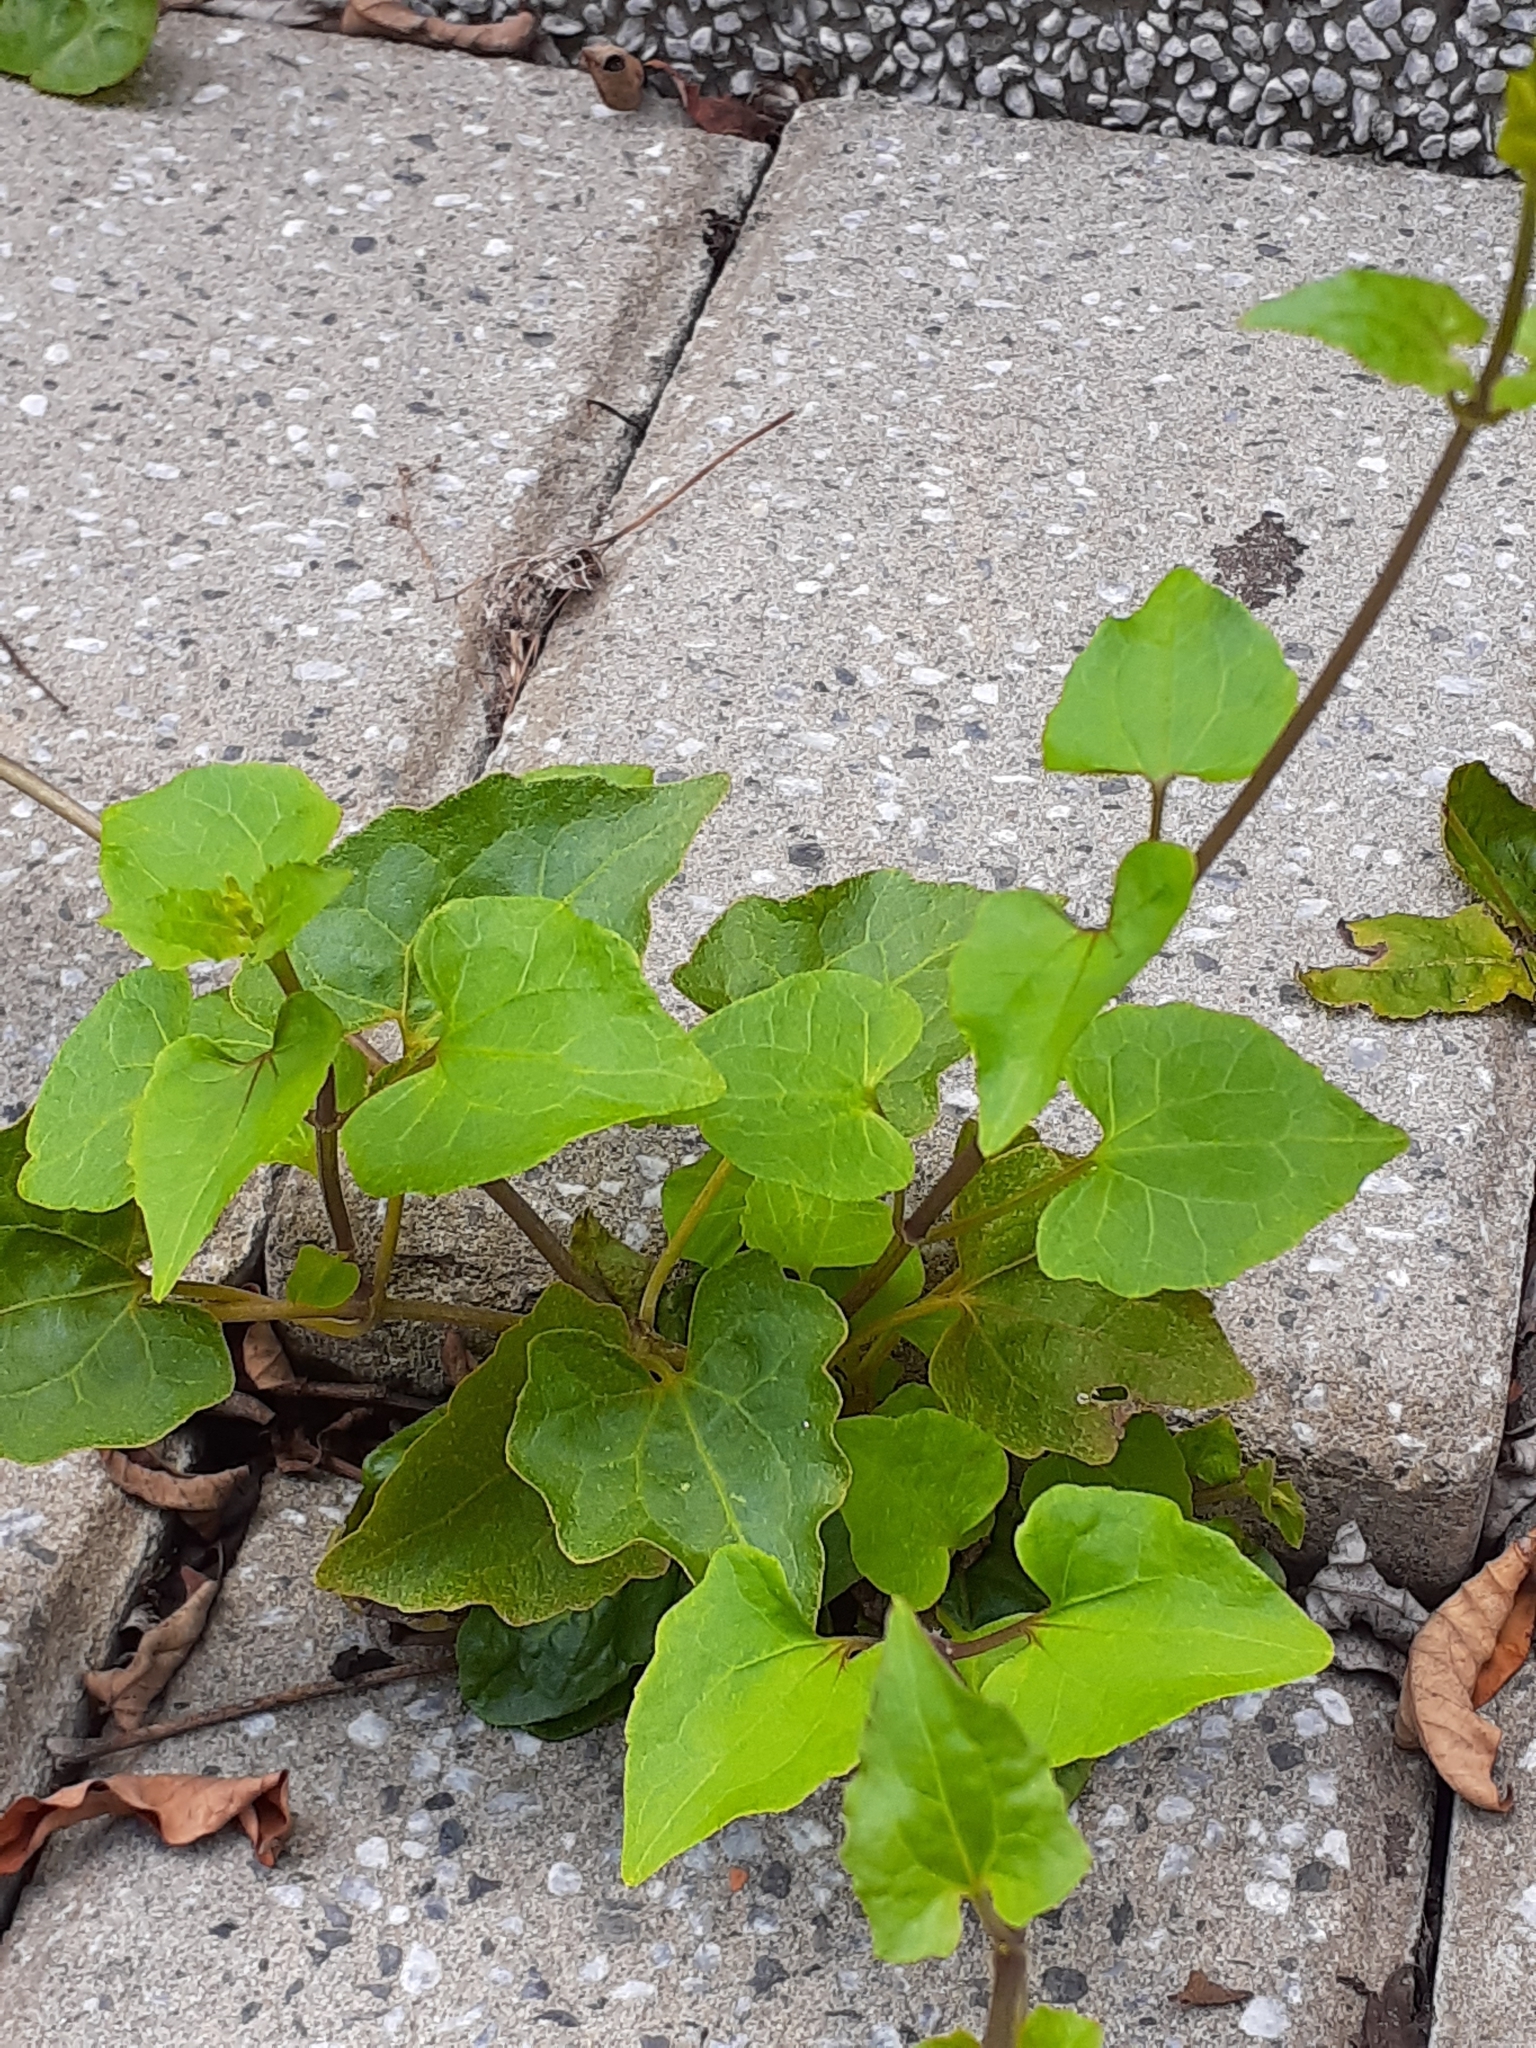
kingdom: Plantae
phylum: Tracheophyta
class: Magnoliopsida
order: Asterales
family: Asteraceae
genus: Mikania
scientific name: Mikania micrantha
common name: Mile-a-minute
